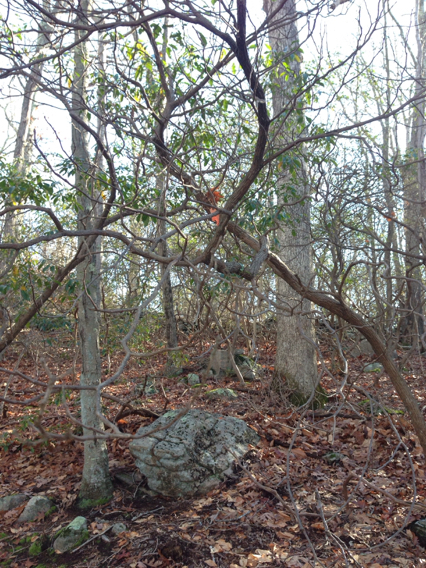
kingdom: Plantae
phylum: Tracheophyta
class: Magnoliopsida
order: Ericales
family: Ericaceae
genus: Kalmia
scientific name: Kalmia latifolia
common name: Mountain-laurel
